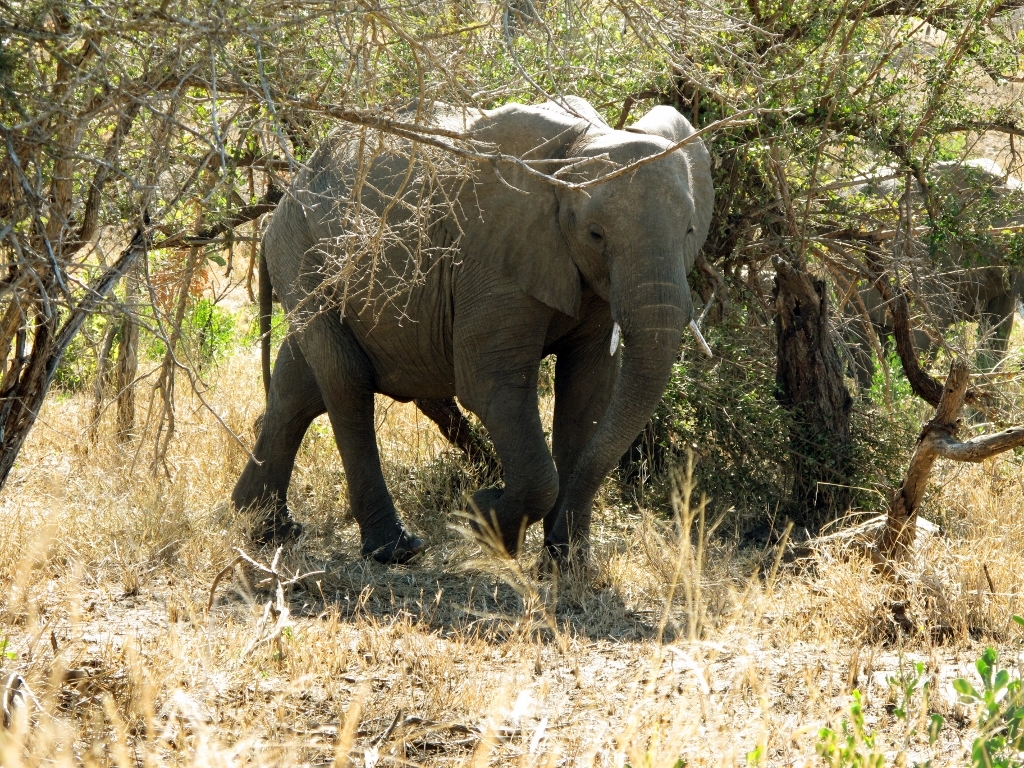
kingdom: Animalia
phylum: Chordata
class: Mammalia
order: Proboscidea
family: Elephantidae
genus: Loxodonta
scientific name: Loxodonta africana
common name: African elephant
